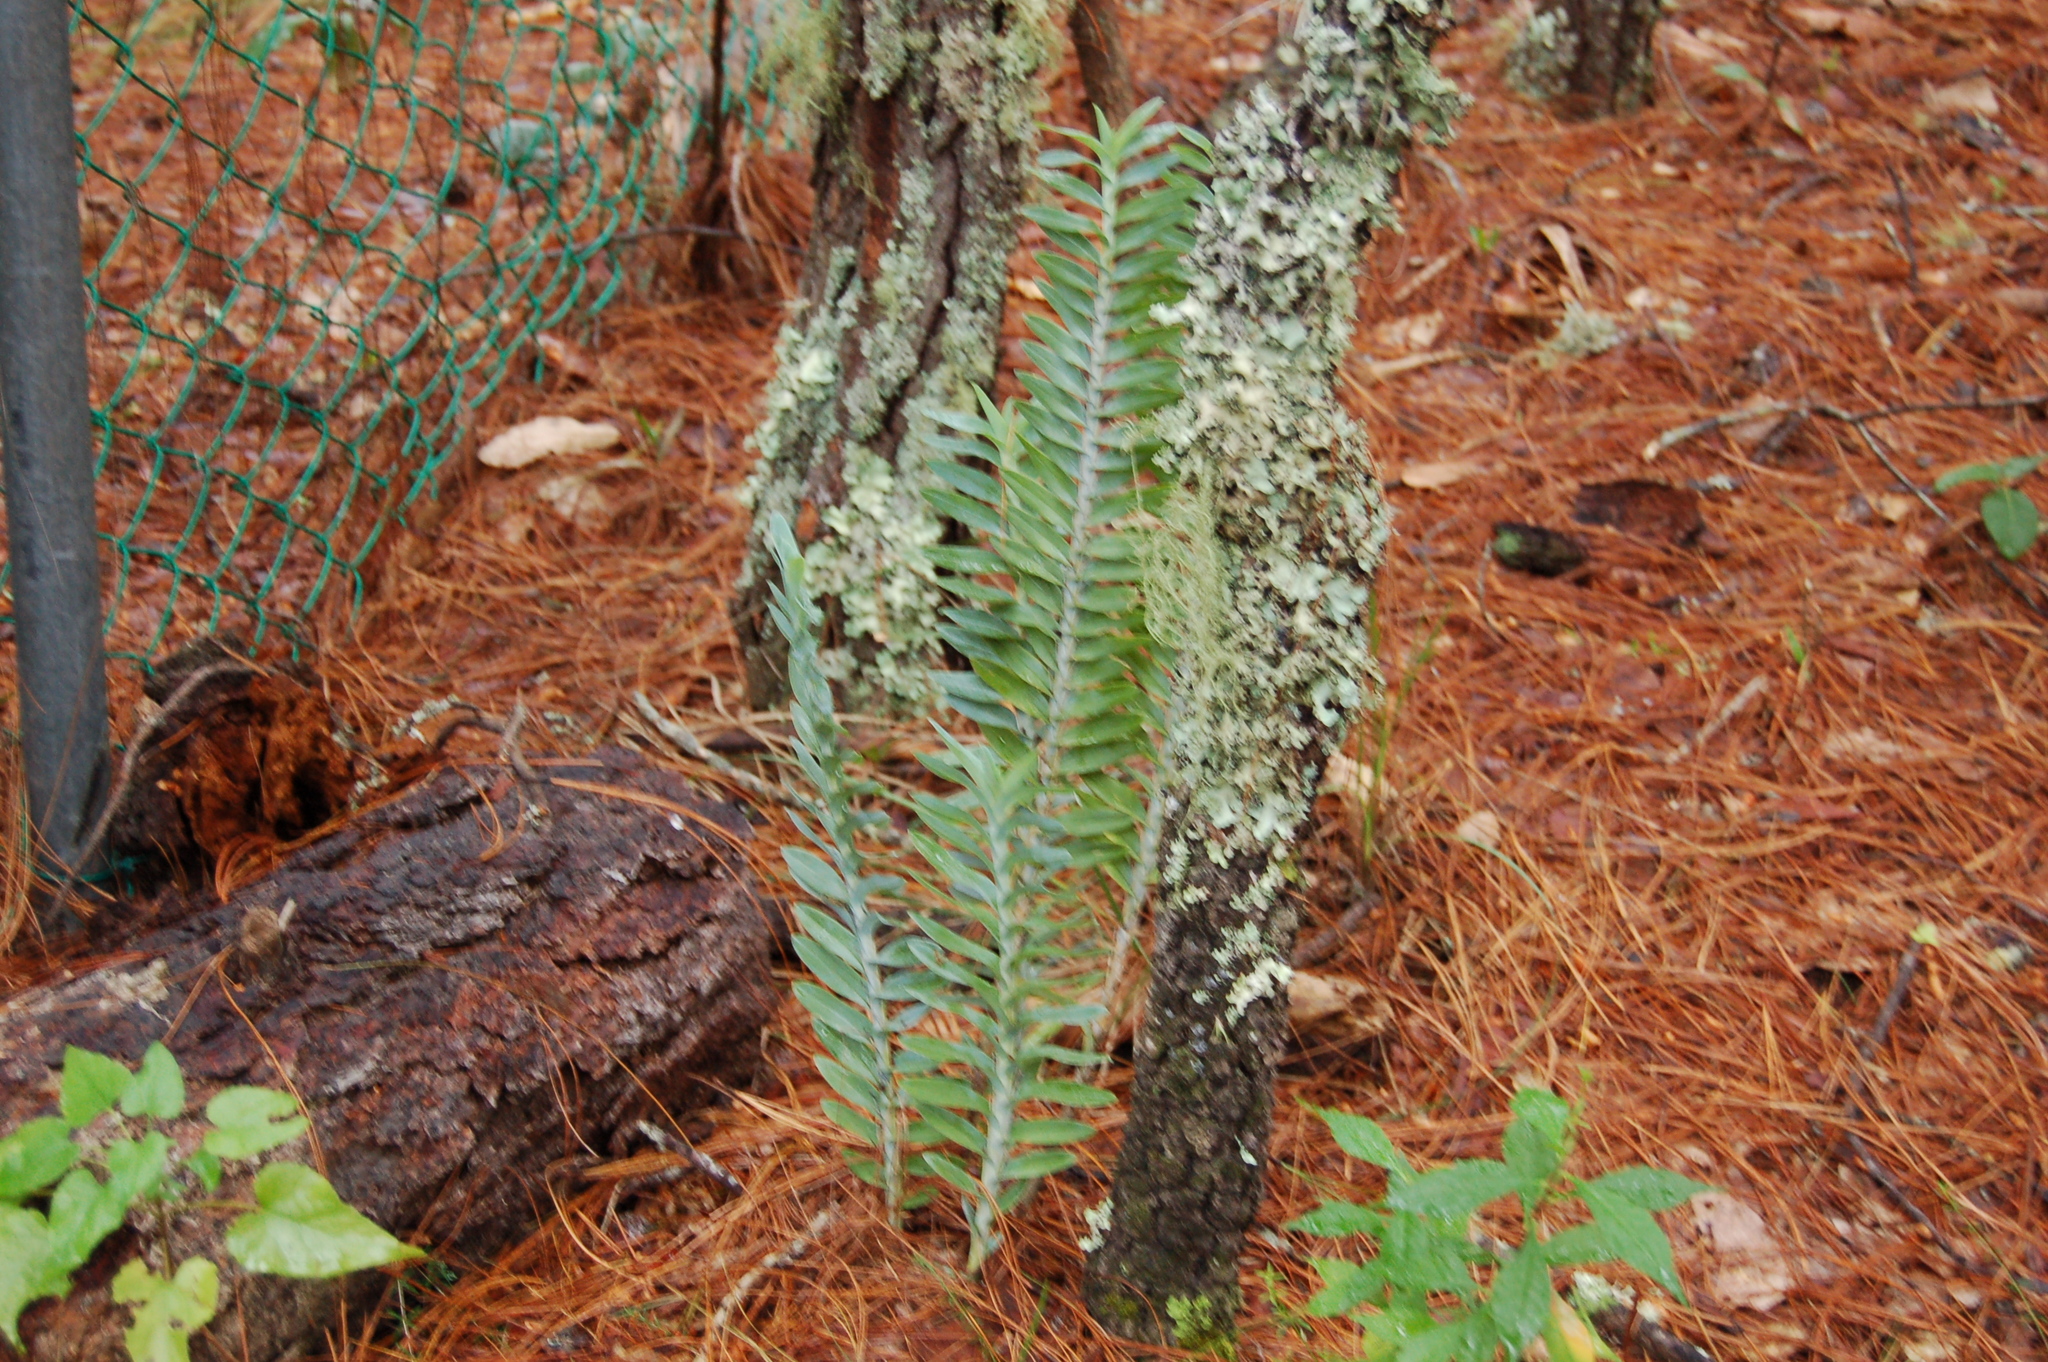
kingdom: Plantae
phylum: Tracheophyta
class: Liliopsida
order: Asparagales
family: Orchidaceae
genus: Dichaea
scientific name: Dichaea glauca
